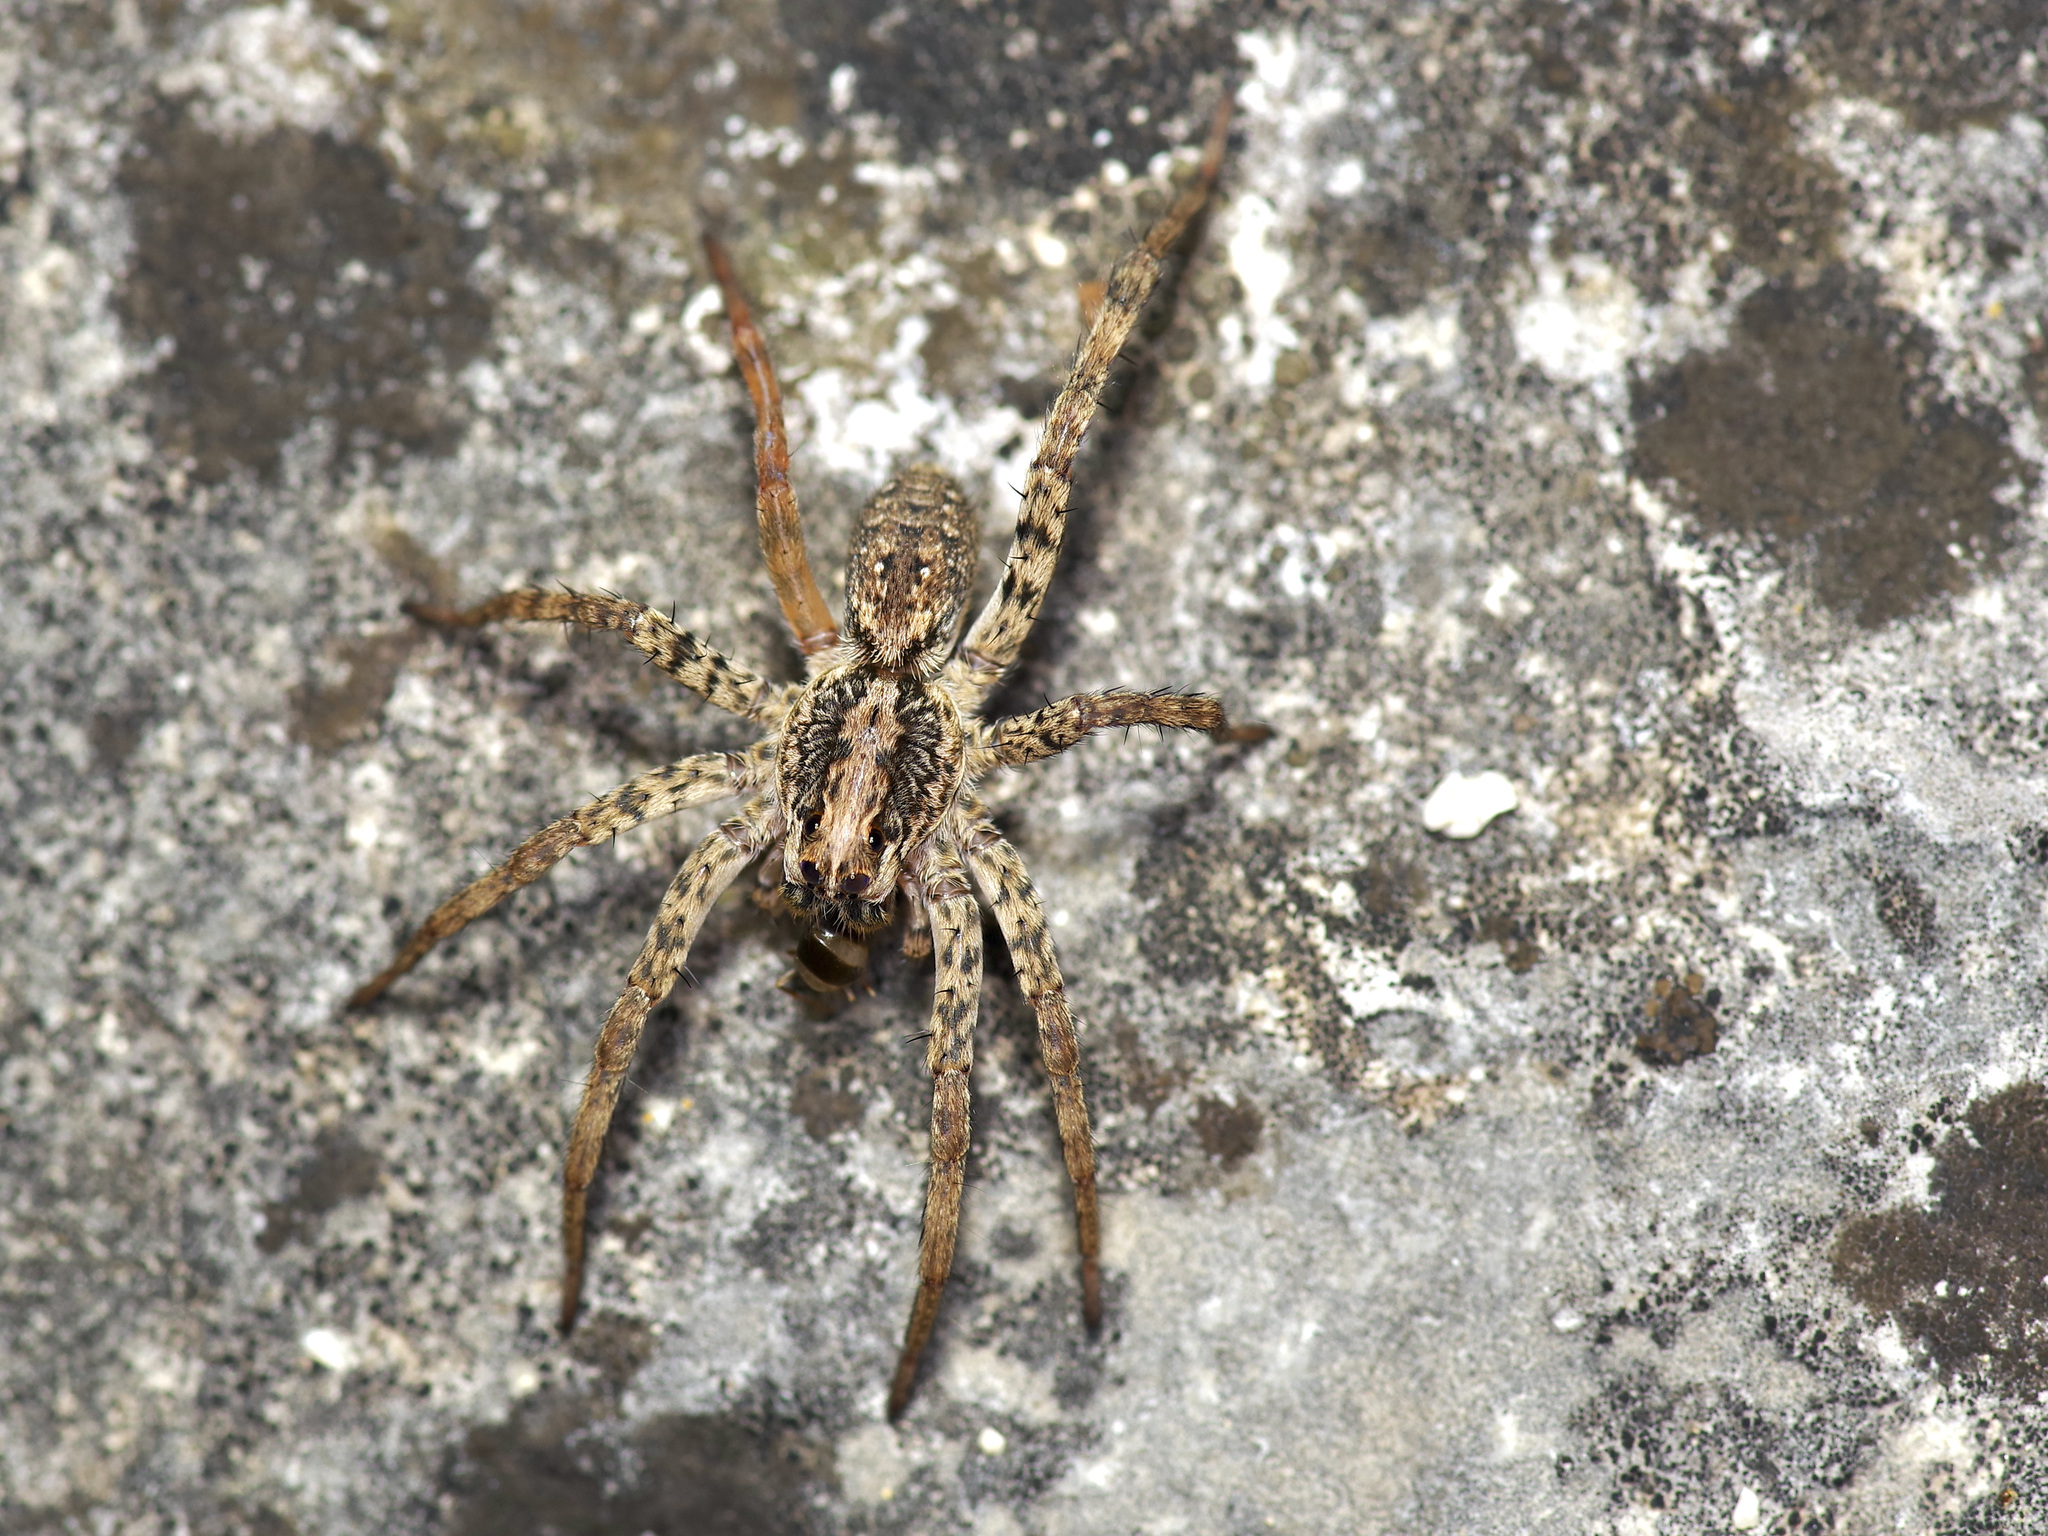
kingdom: Animalia
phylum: Arthropoda
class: Arachnida
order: Araneae
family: Lycosidae
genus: Hogna
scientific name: Hogna antelucana
